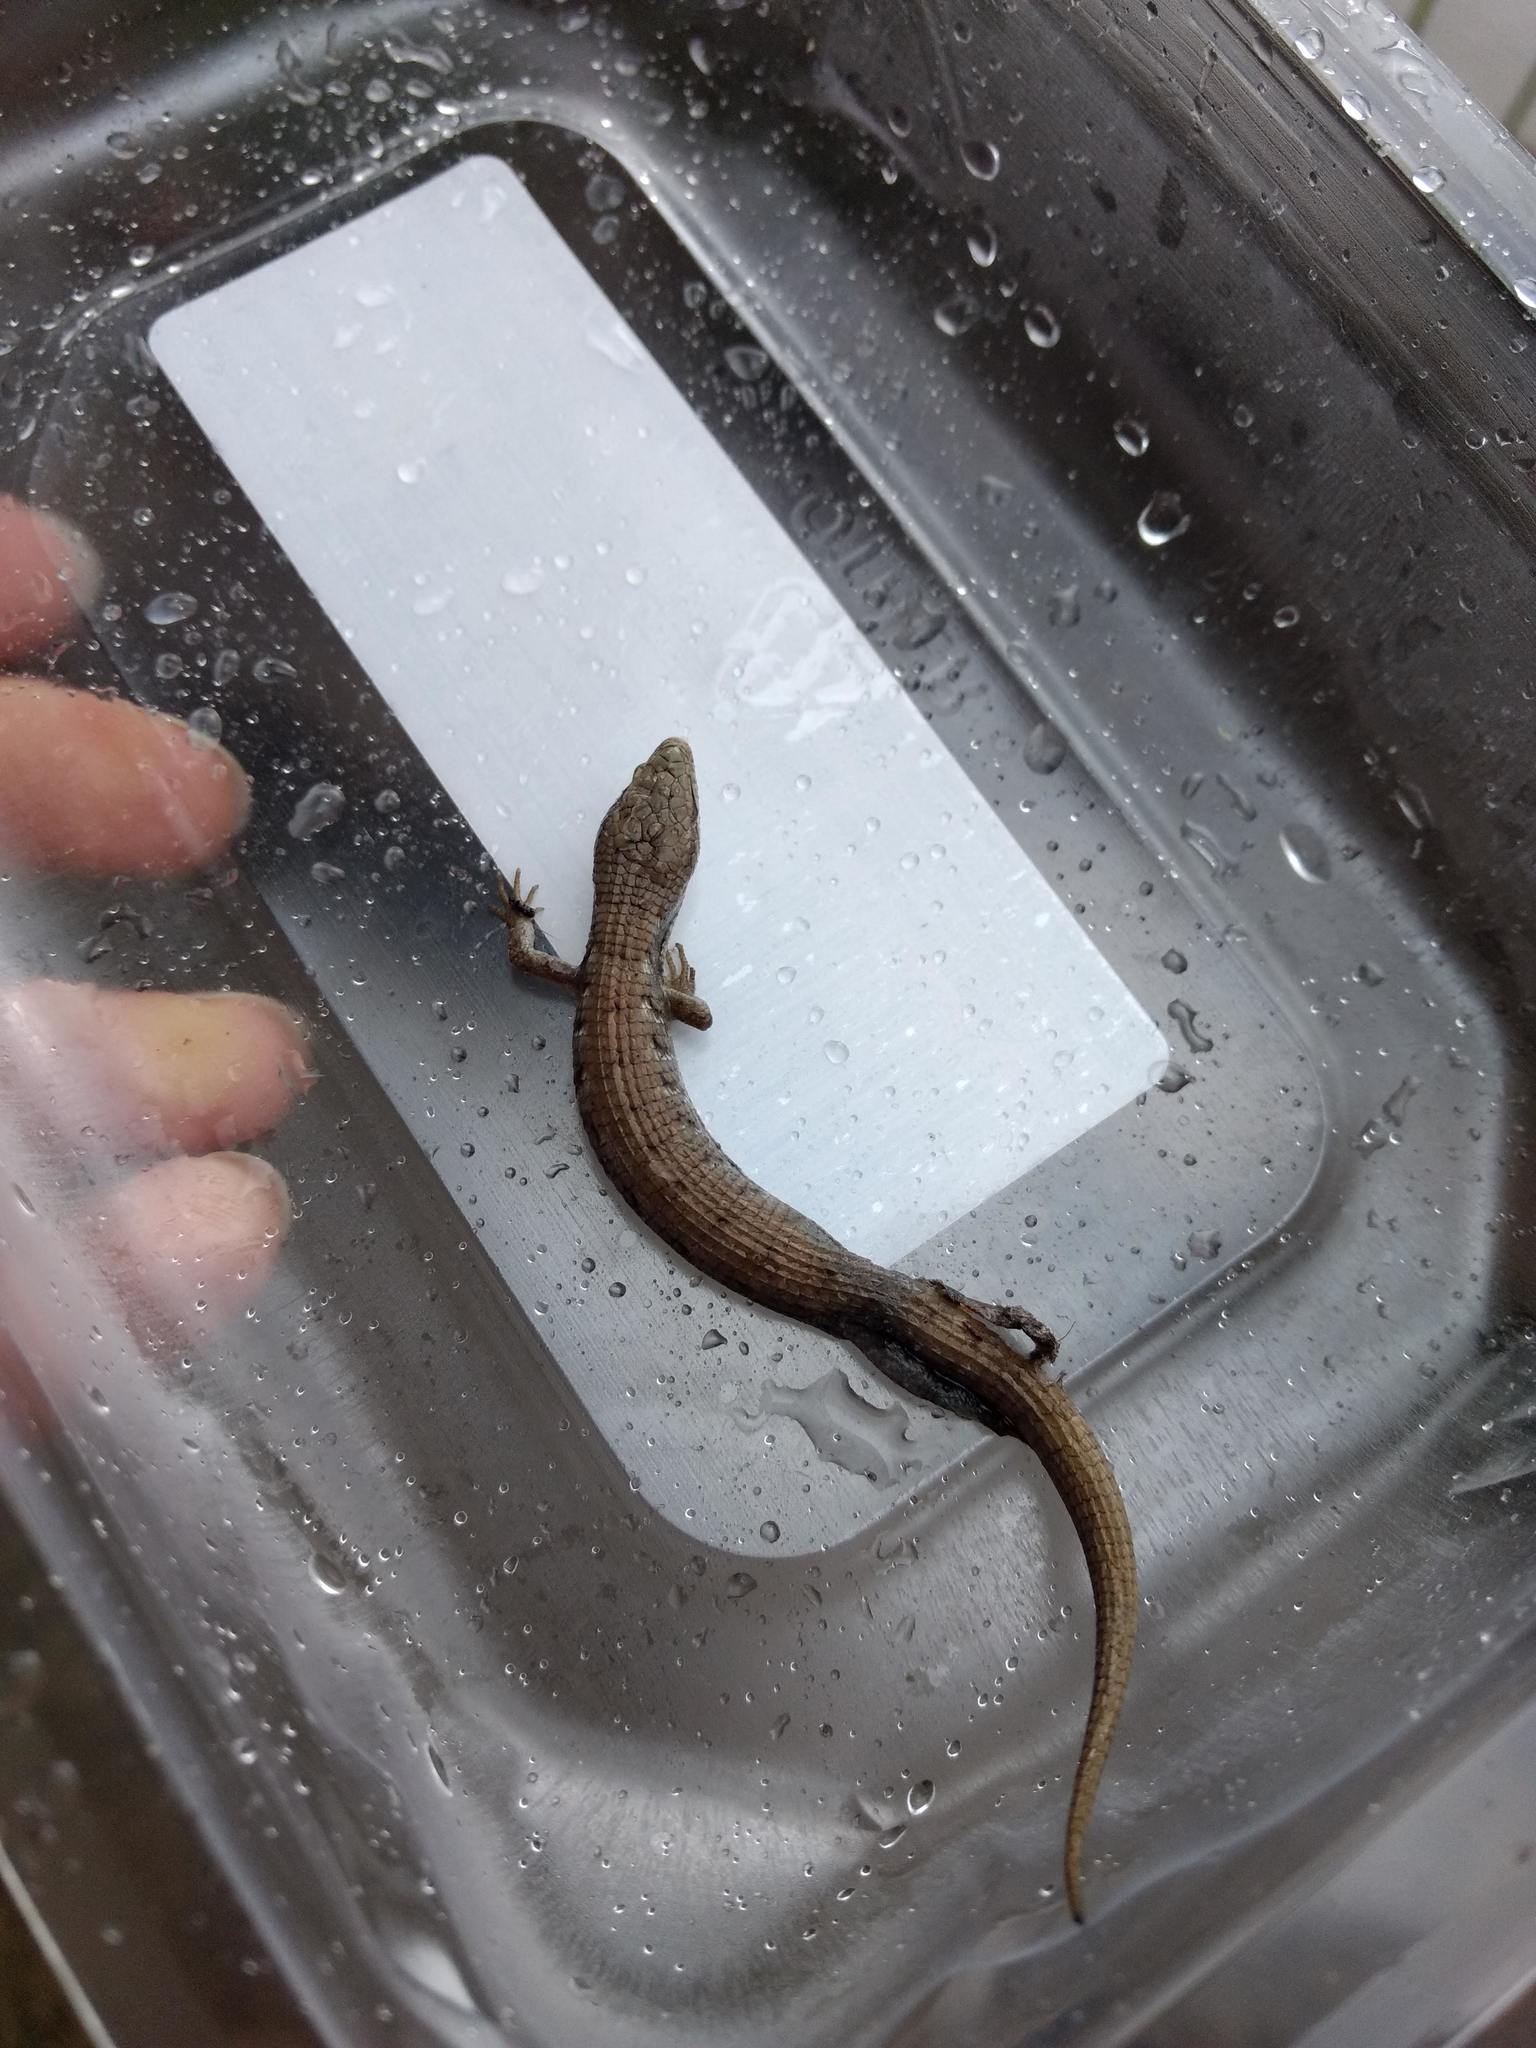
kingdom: Animalia
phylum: Chordata
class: Squamata
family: Anguidae
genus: Elgaria
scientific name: Elgaria multicarinata
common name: Southern alligator lizard
